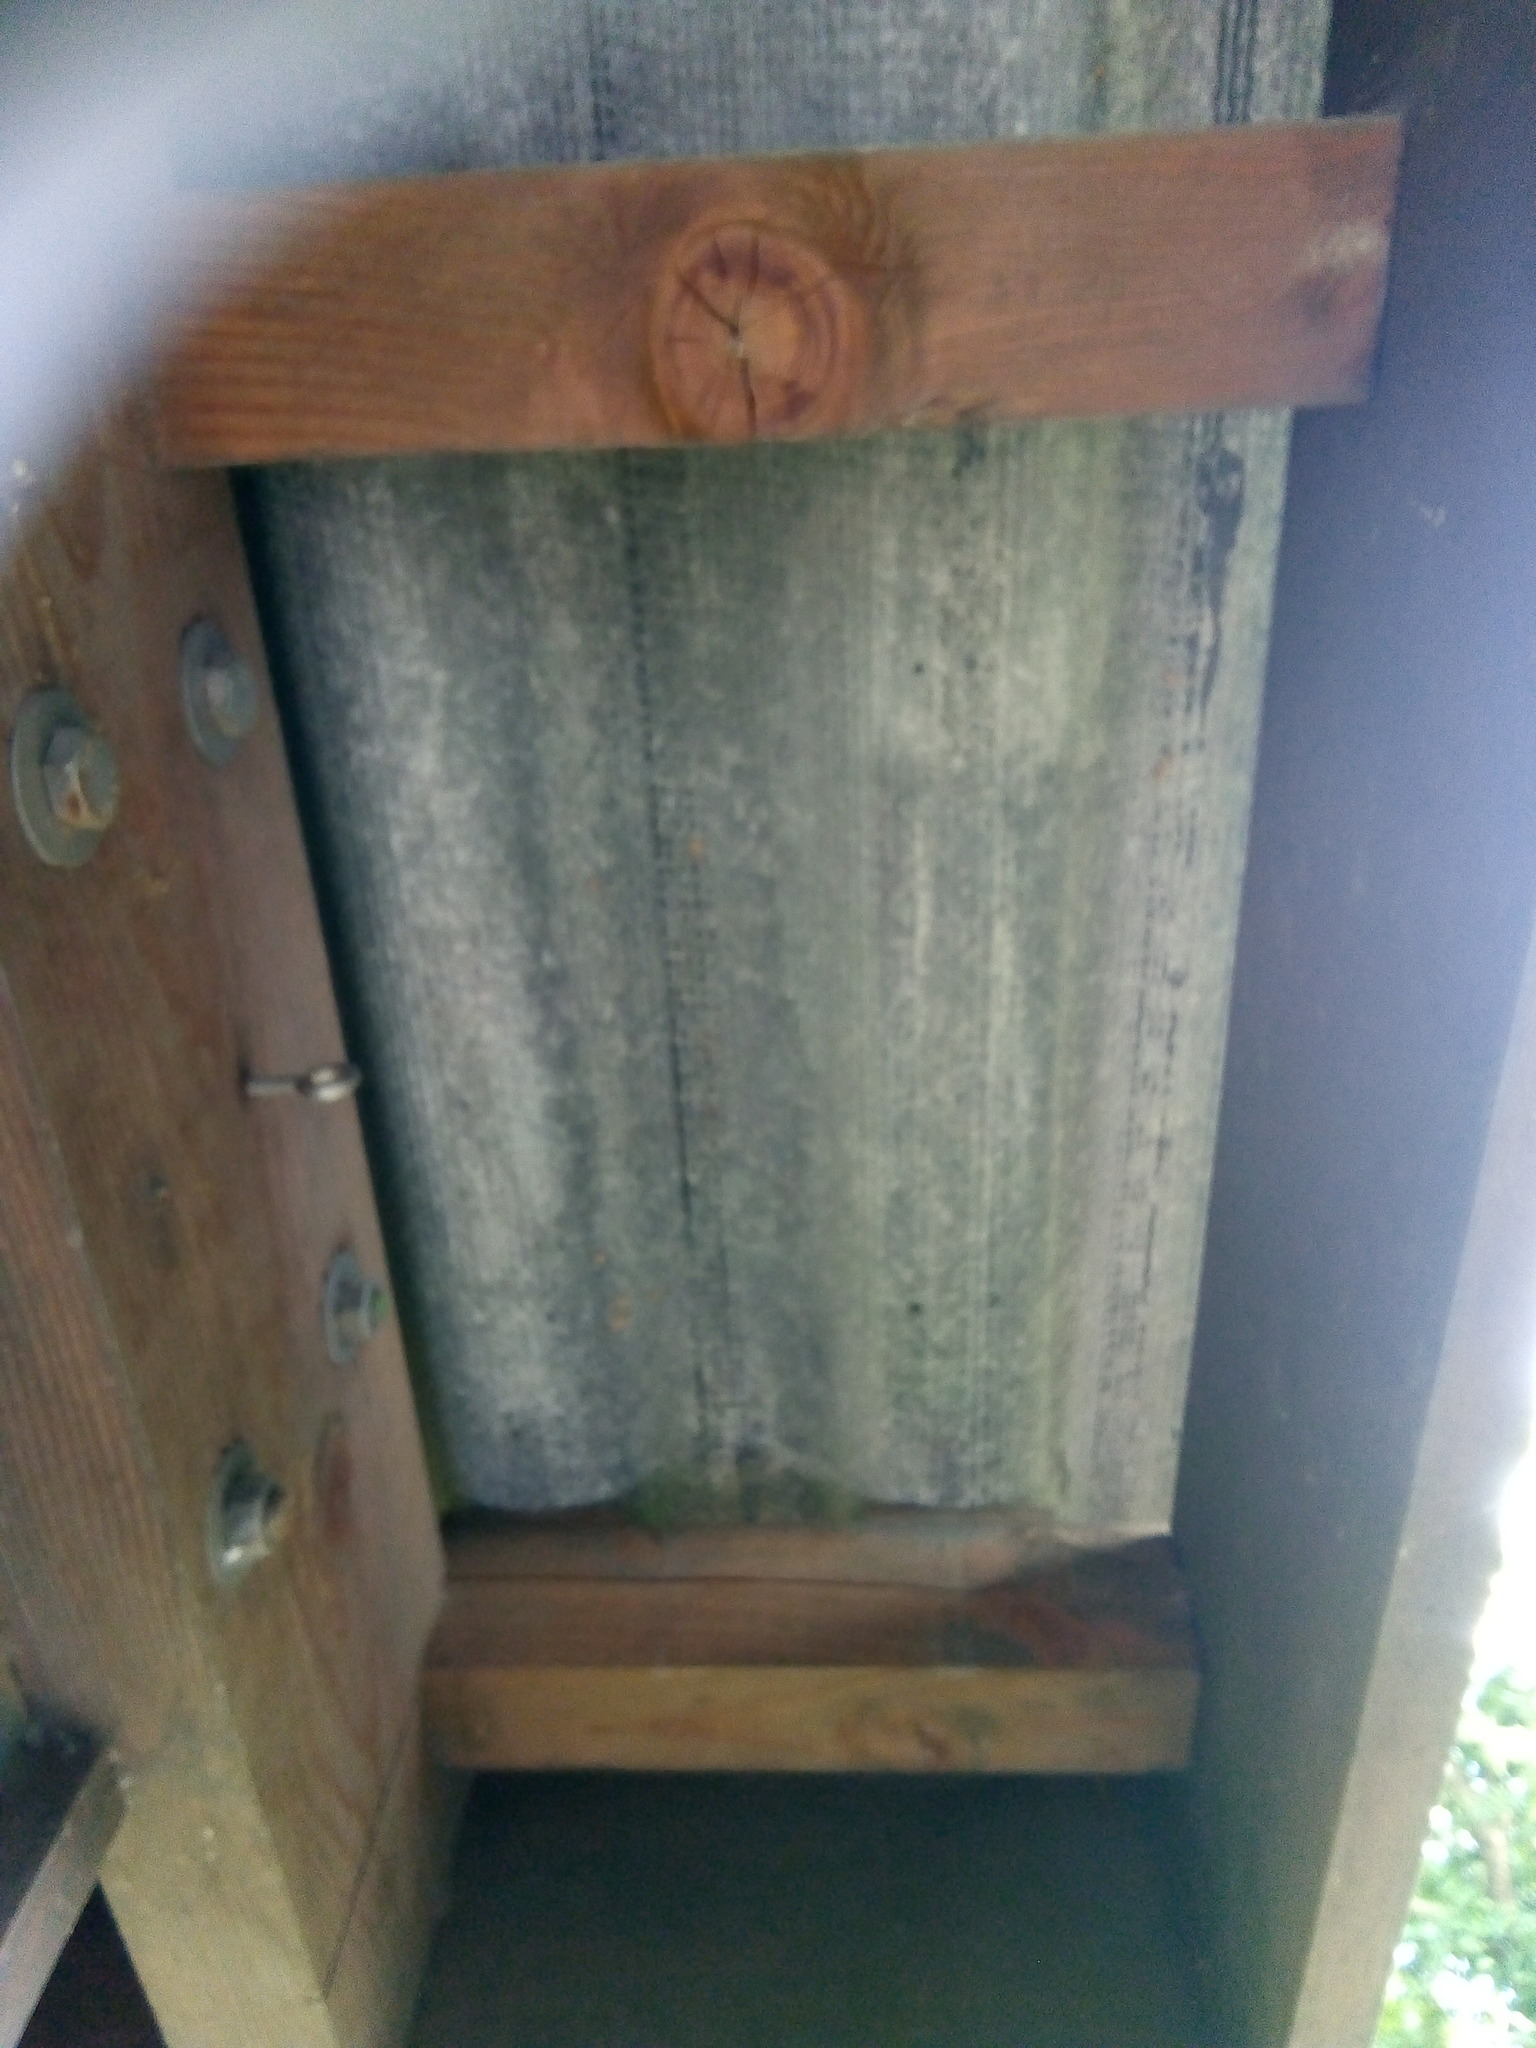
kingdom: Animalia
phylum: Arthropoda
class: Insecta
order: Hymenoptera
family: Vespidae
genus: Vespa
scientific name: Vespa velutina
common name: Asian hornet
